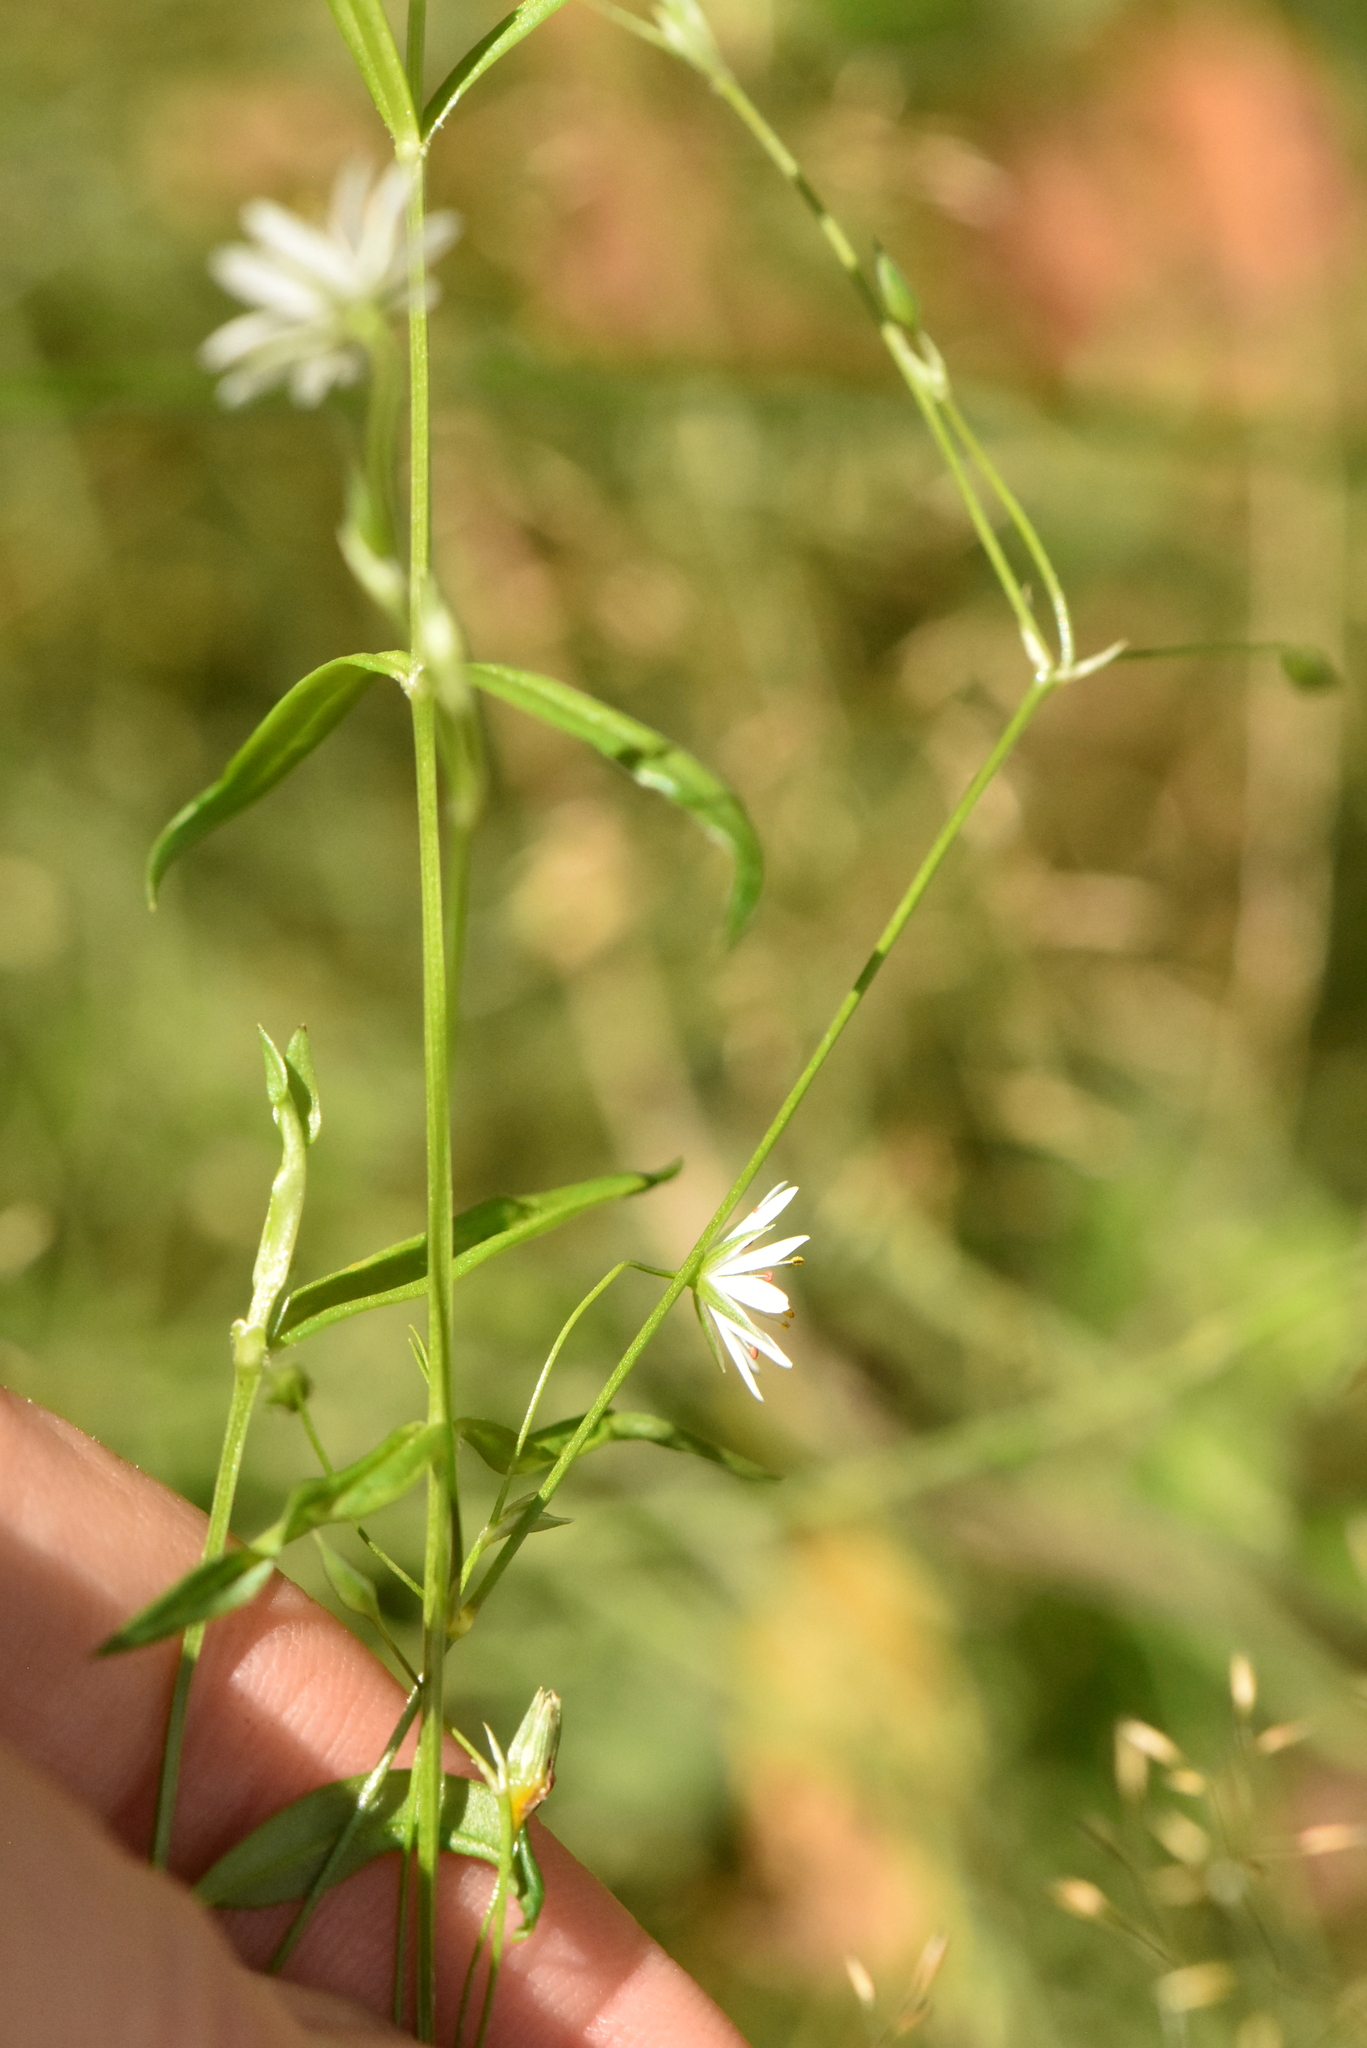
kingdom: Plantae
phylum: Tracheophyta
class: Magnoliopsida
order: Caryophyllales
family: Caryophyllaceae
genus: Stellaria
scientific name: Stellaria graminea
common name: Grass-like starwort
